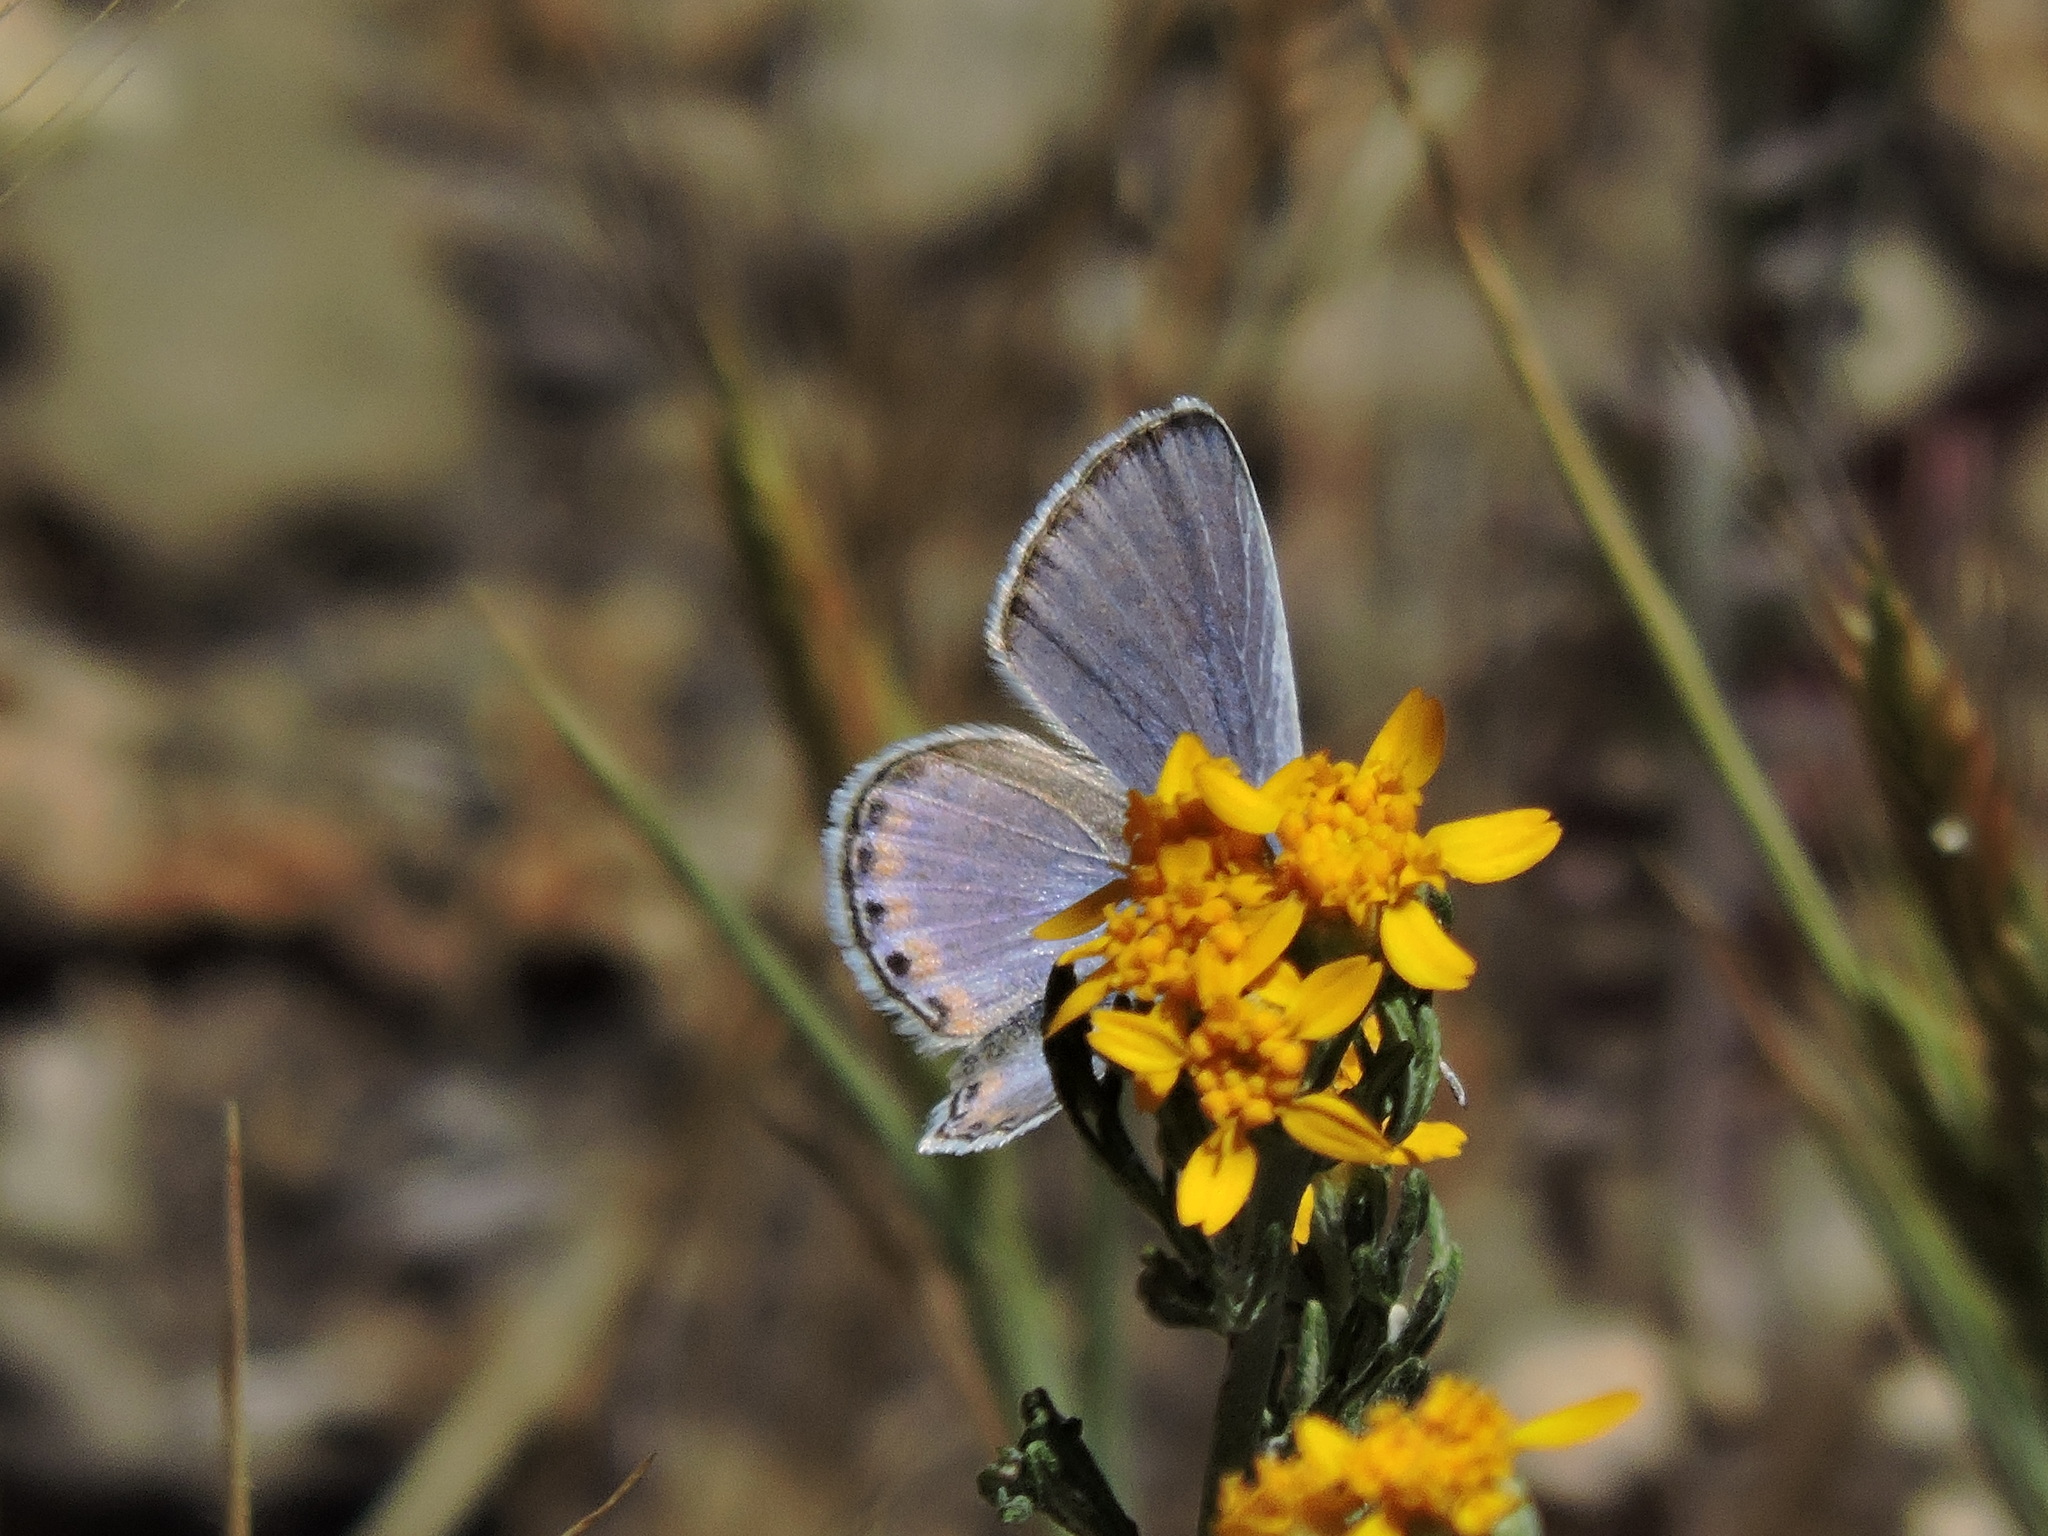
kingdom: Animalia
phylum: Arthropoda
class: Insecta
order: Lepidoptera
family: Lycaenidae
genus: Icaricia
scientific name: Icaricia acmon
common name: Acmon blue
